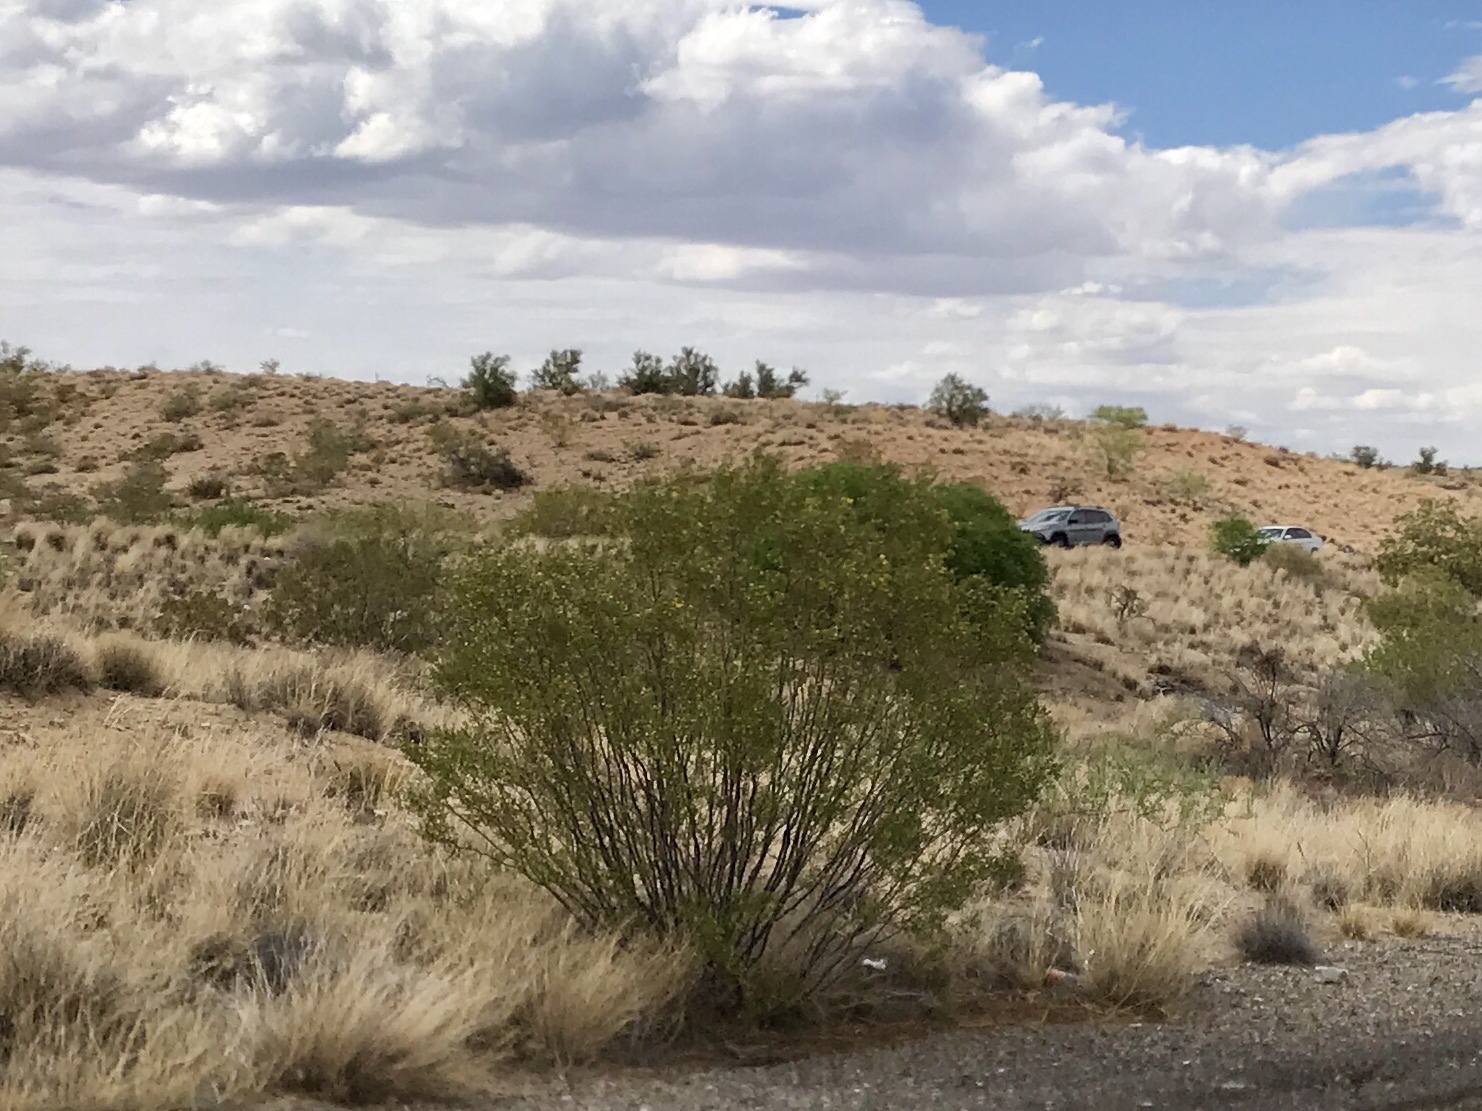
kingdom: Plantae
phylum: Tracheophyta
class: Magnoliopsida
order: Zygophyllales
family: Zygophyllaceae
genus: Larrea
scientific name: Larrea tridentata
